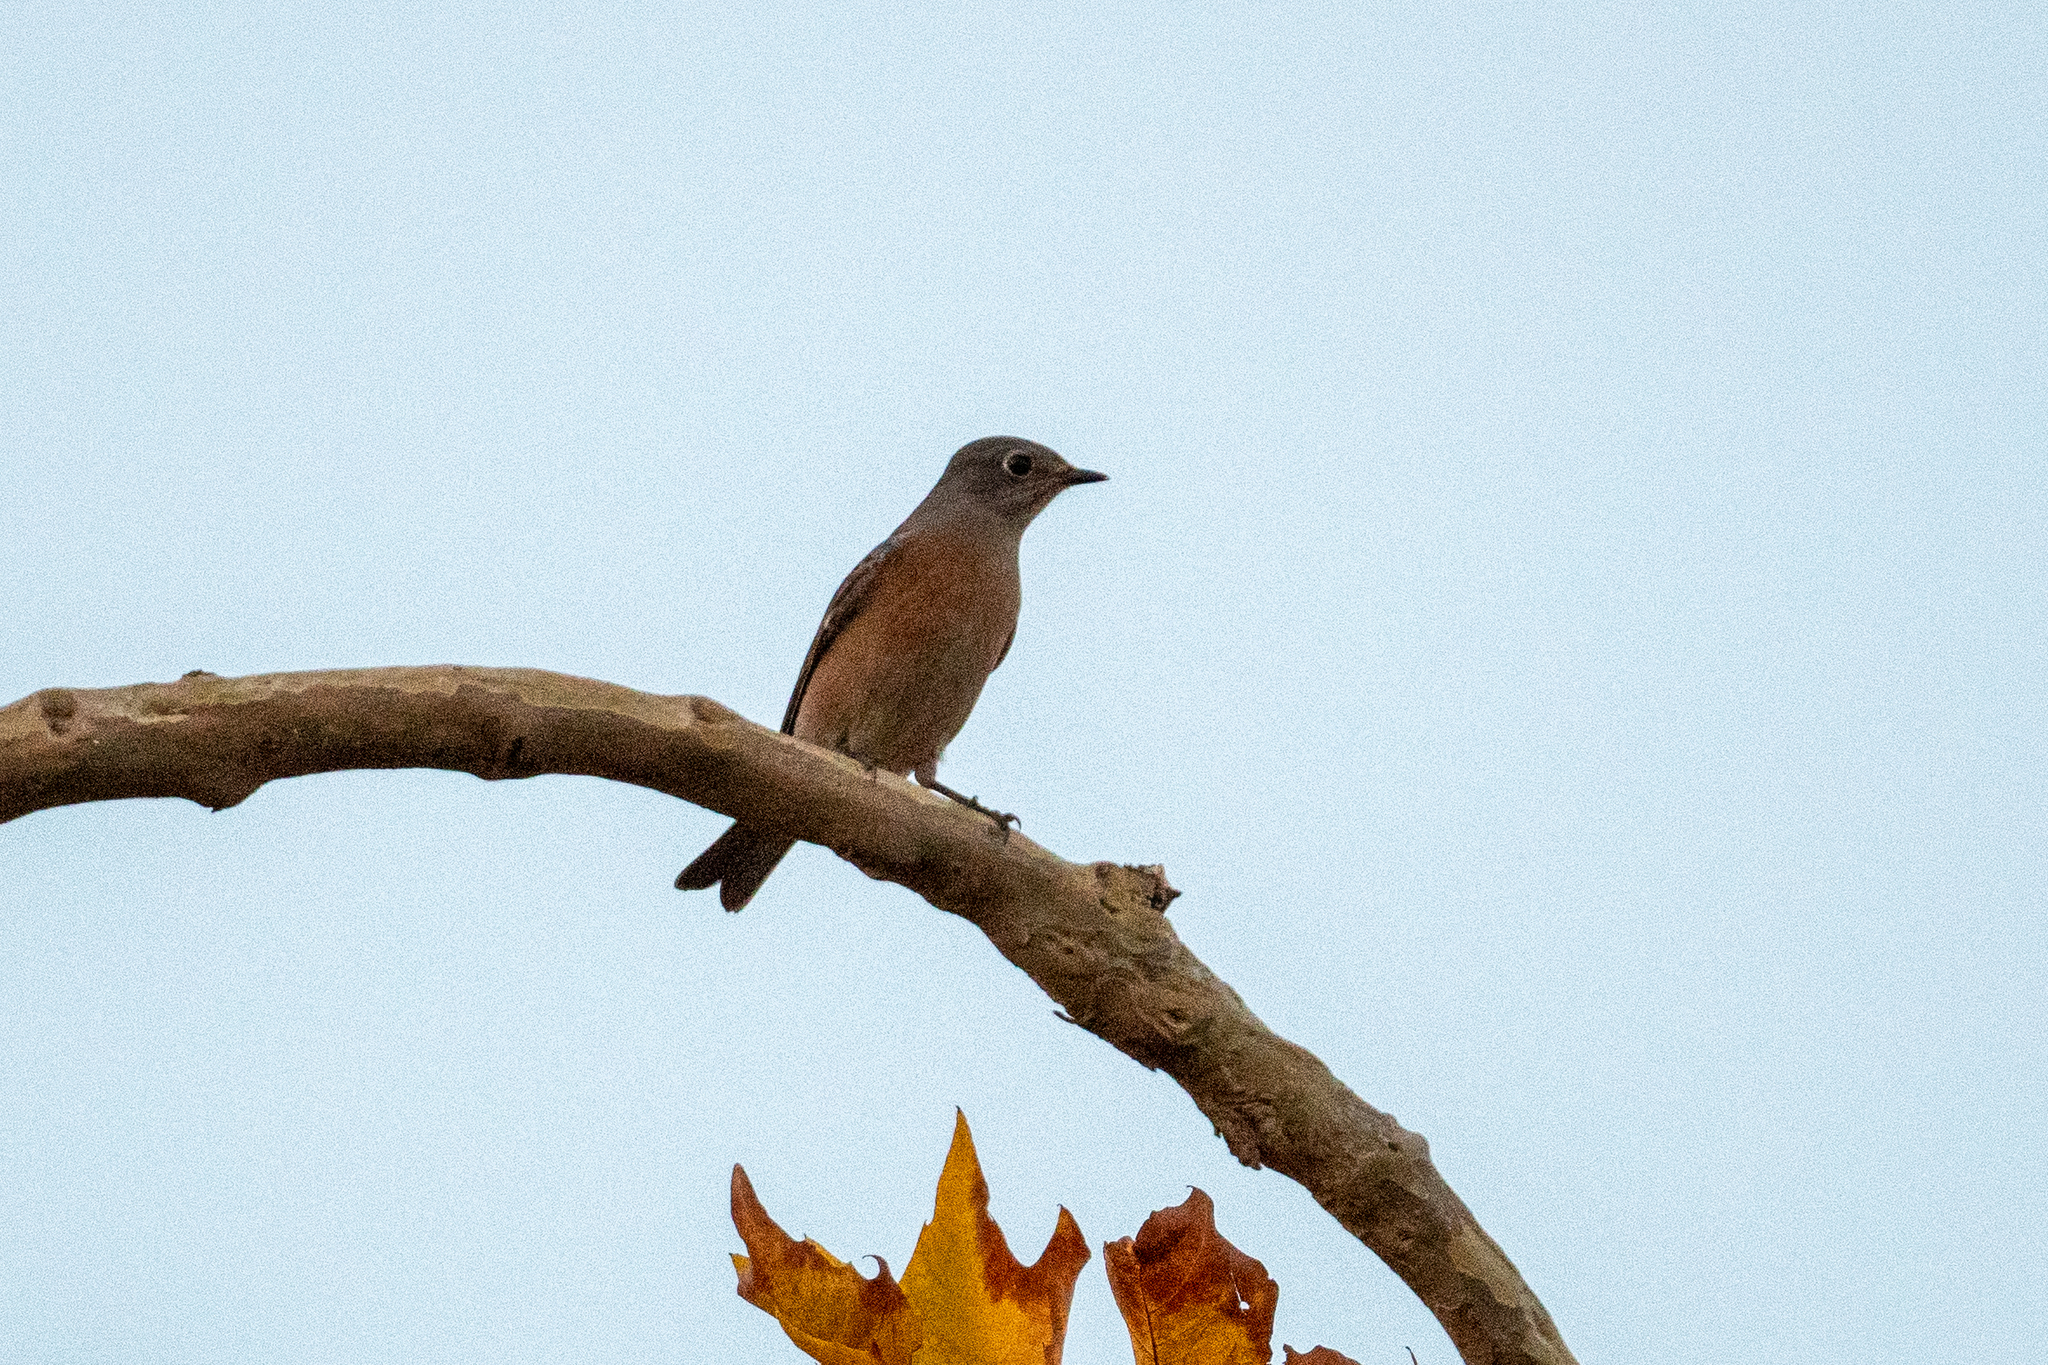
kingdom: Animalia
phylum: Chordata
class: Aves
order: Passeriformes
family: Turdidae
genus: Sialia
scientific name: Sialia mexicana
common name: Western bluebird
